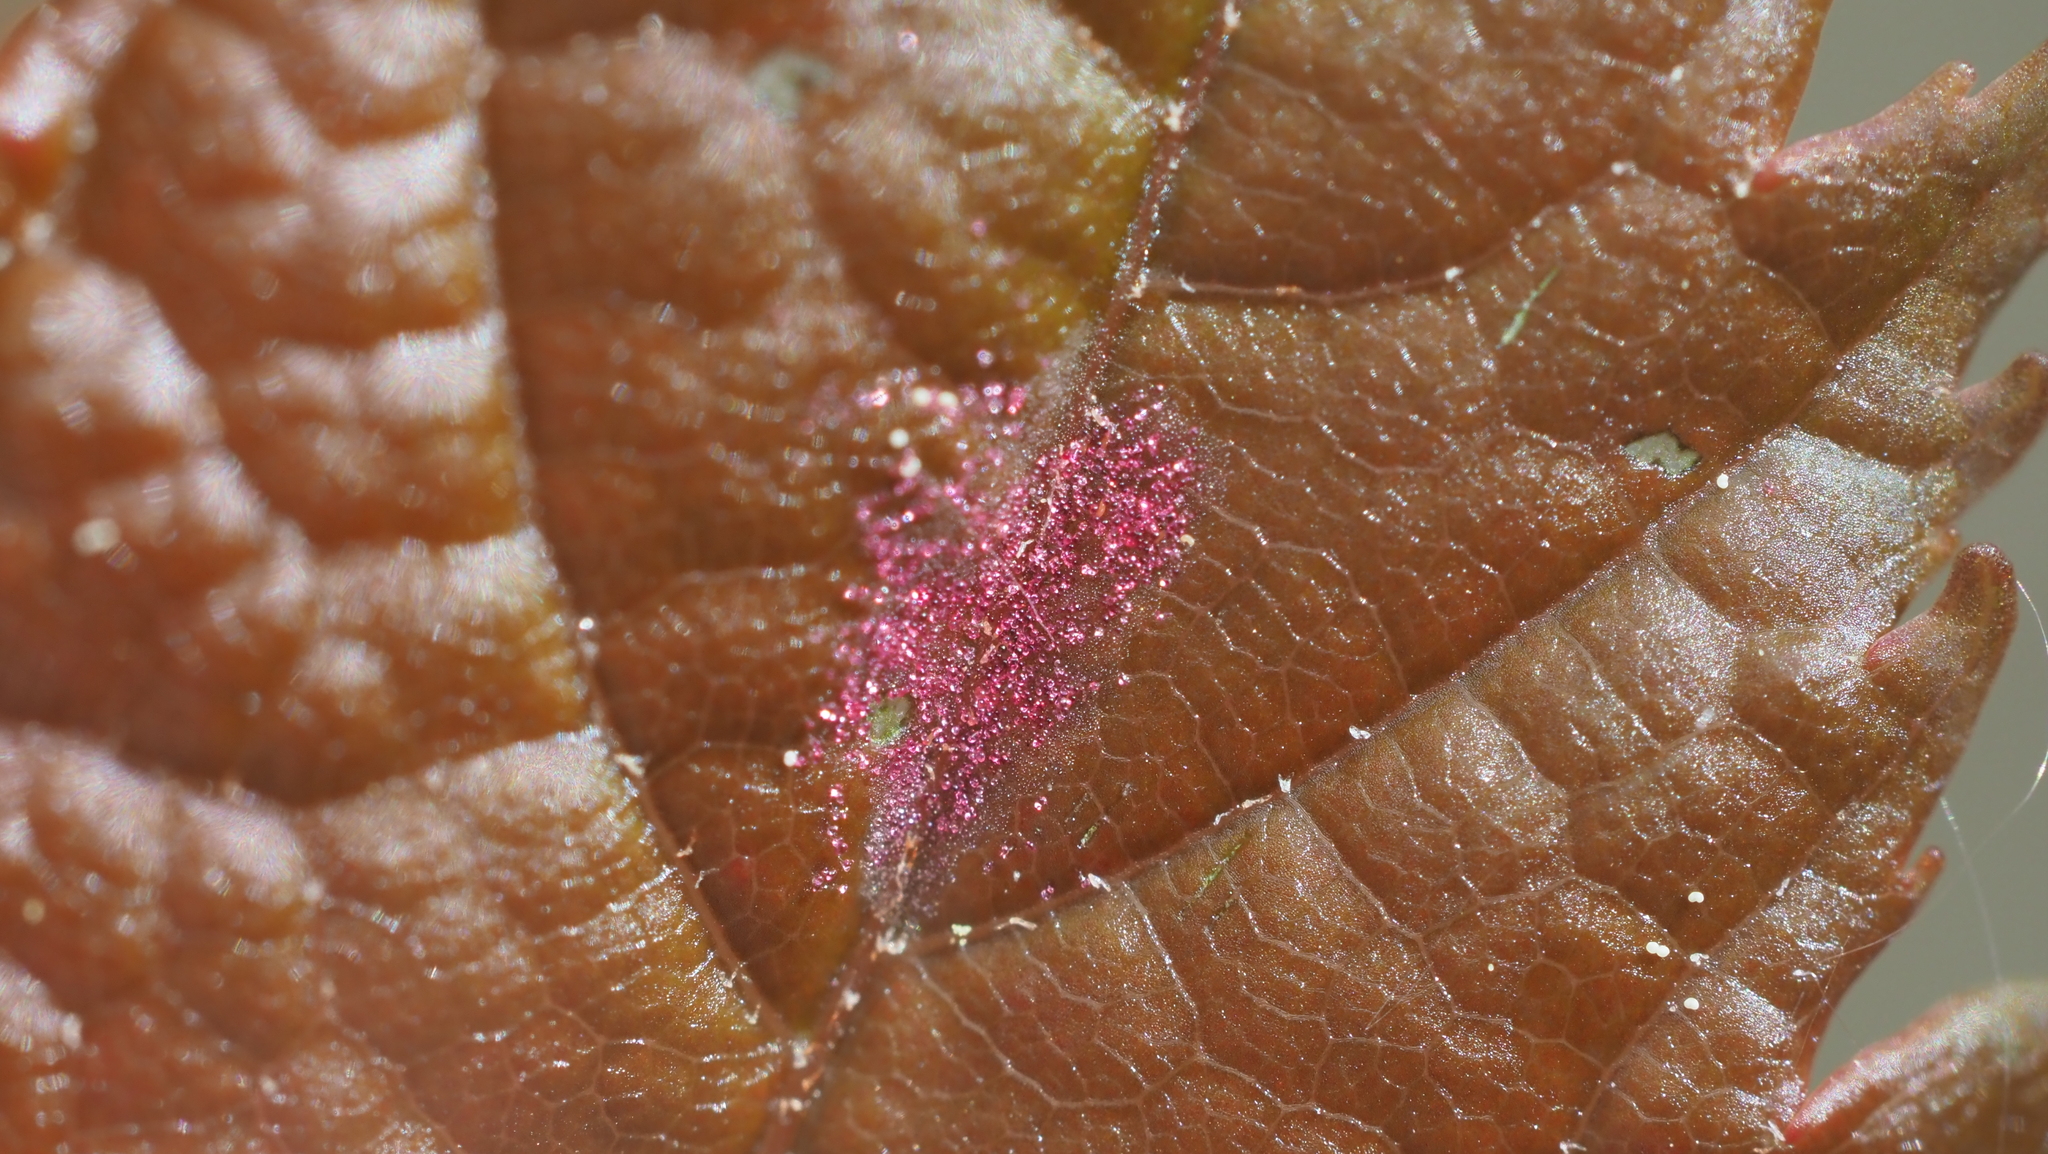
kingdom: Animalia
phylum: Arthropoda
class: Arachnida
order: Trombidiformes
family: Eriophyidae
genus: Aculus
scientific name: Aculus
